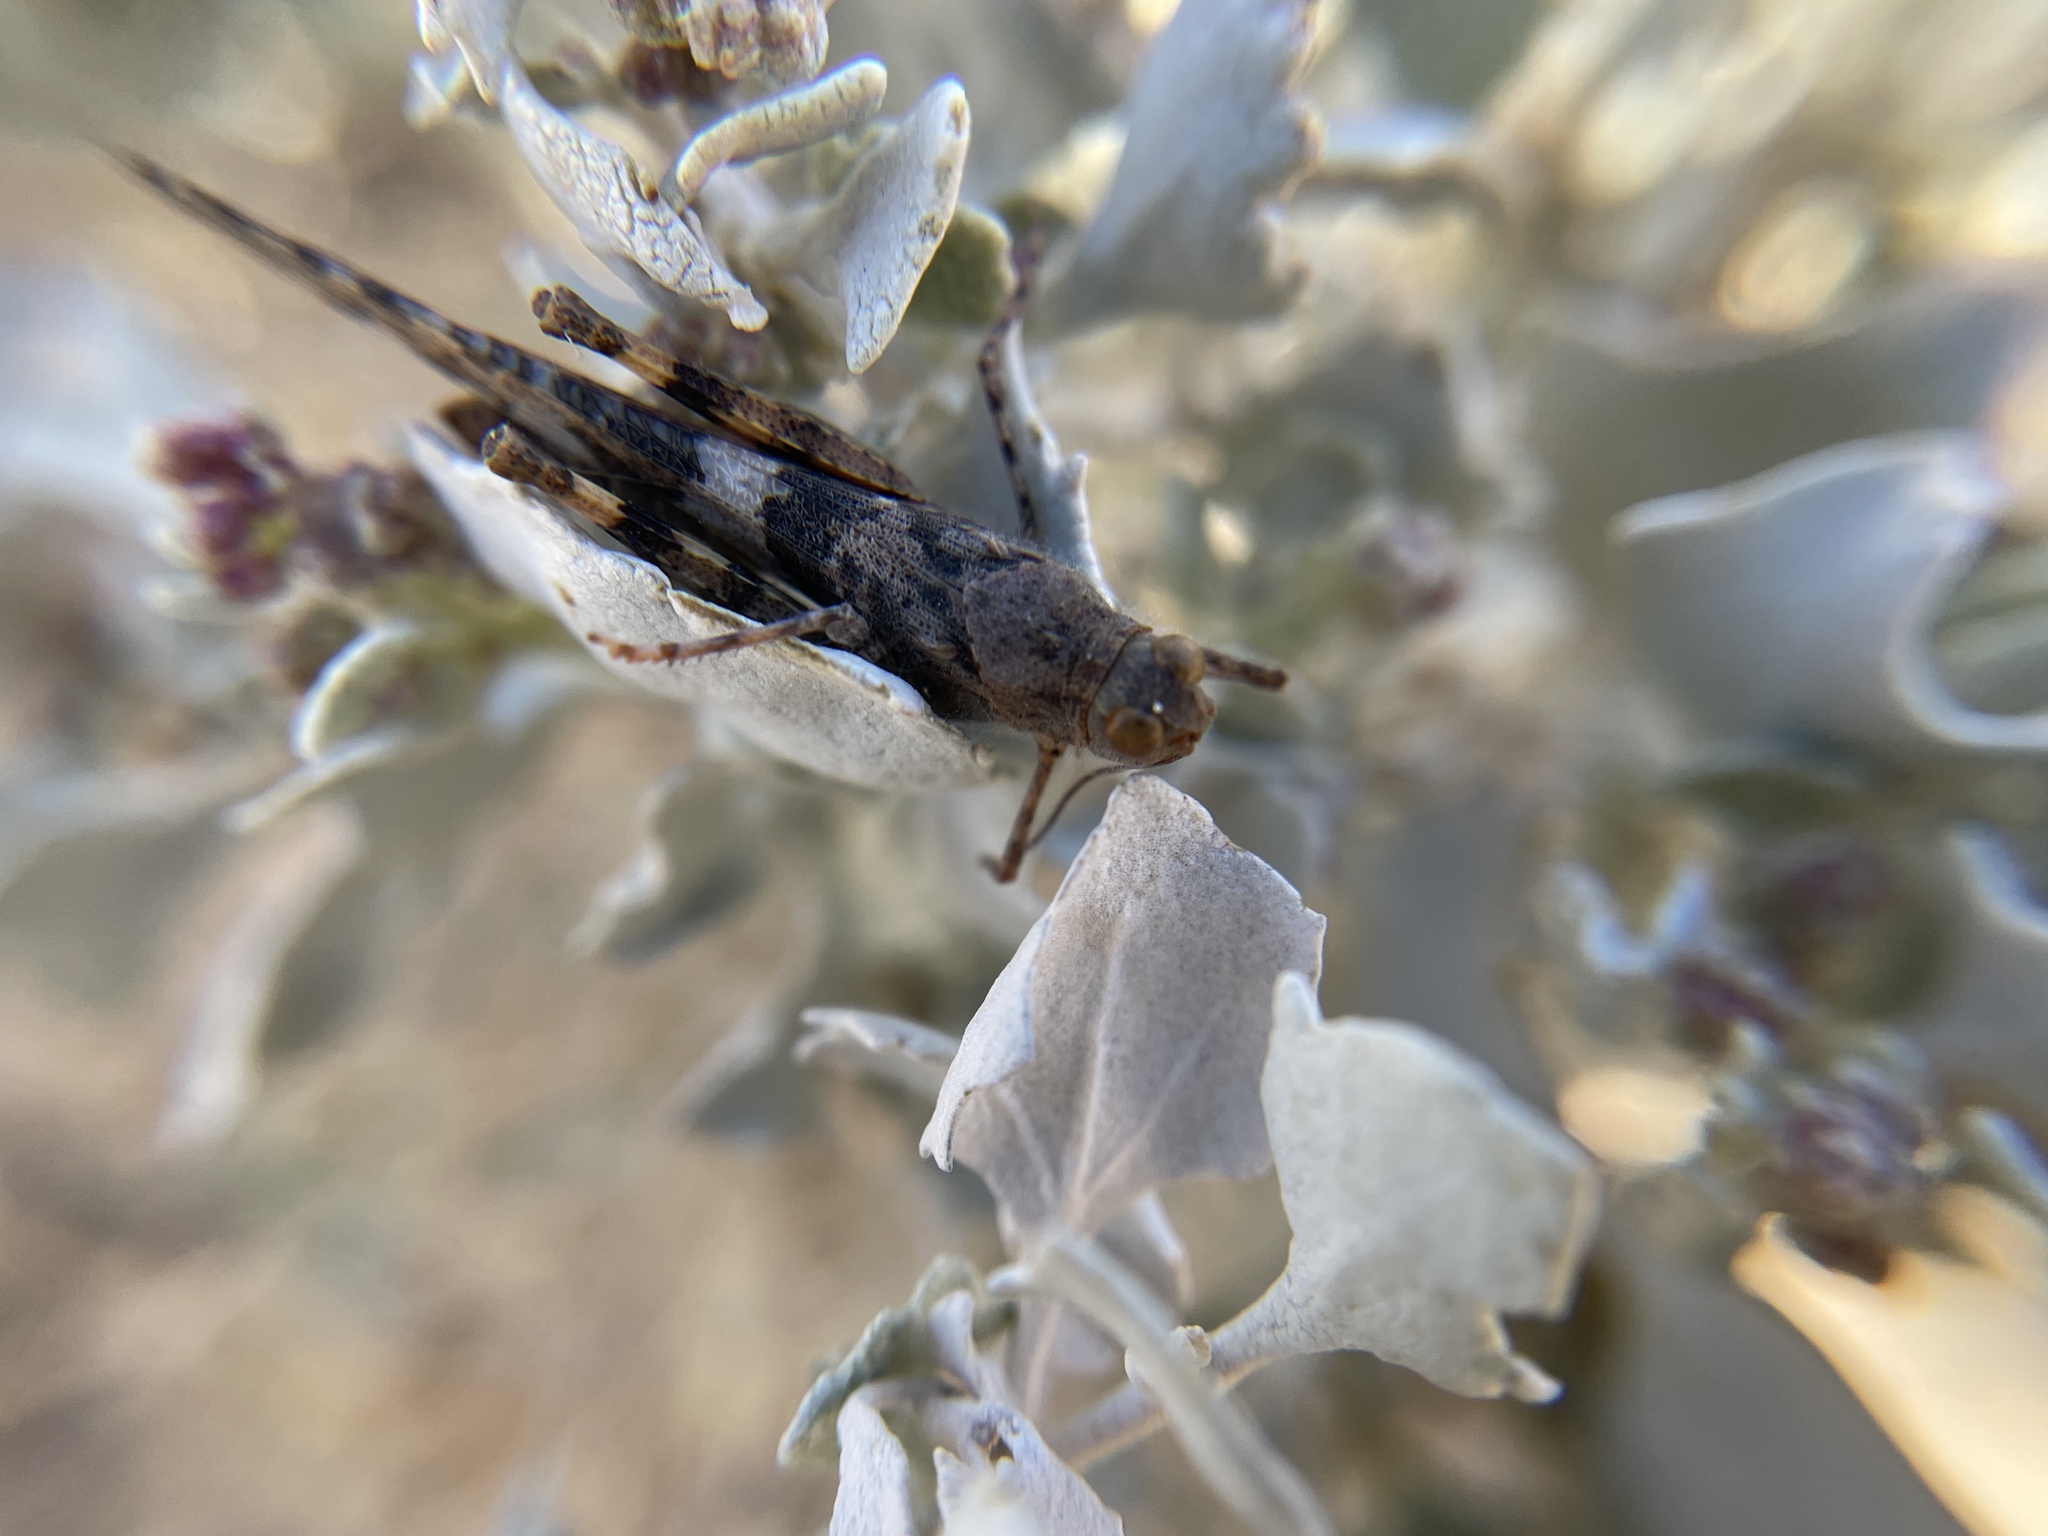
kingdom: Animalia
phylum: Arthropoda
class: Insecta
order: Orthoptera
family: Acrididae
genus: Trimerotropis
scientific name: Trimerotropis pallidipennis
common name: Pallid-winged grasshopper
